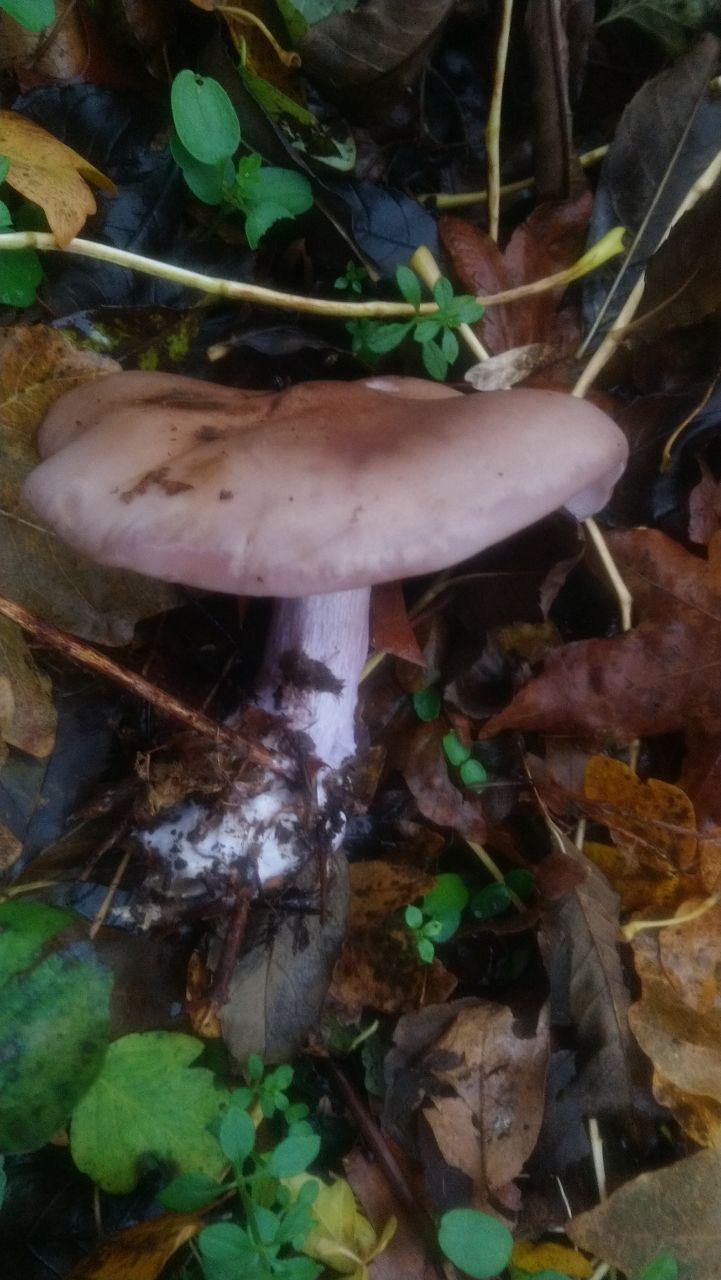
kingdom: Fungi
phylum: Basidiomycota
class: Agaricomycetes
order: Agaricales
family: Tricholomataceae
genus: Collybia
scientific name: Collybia
